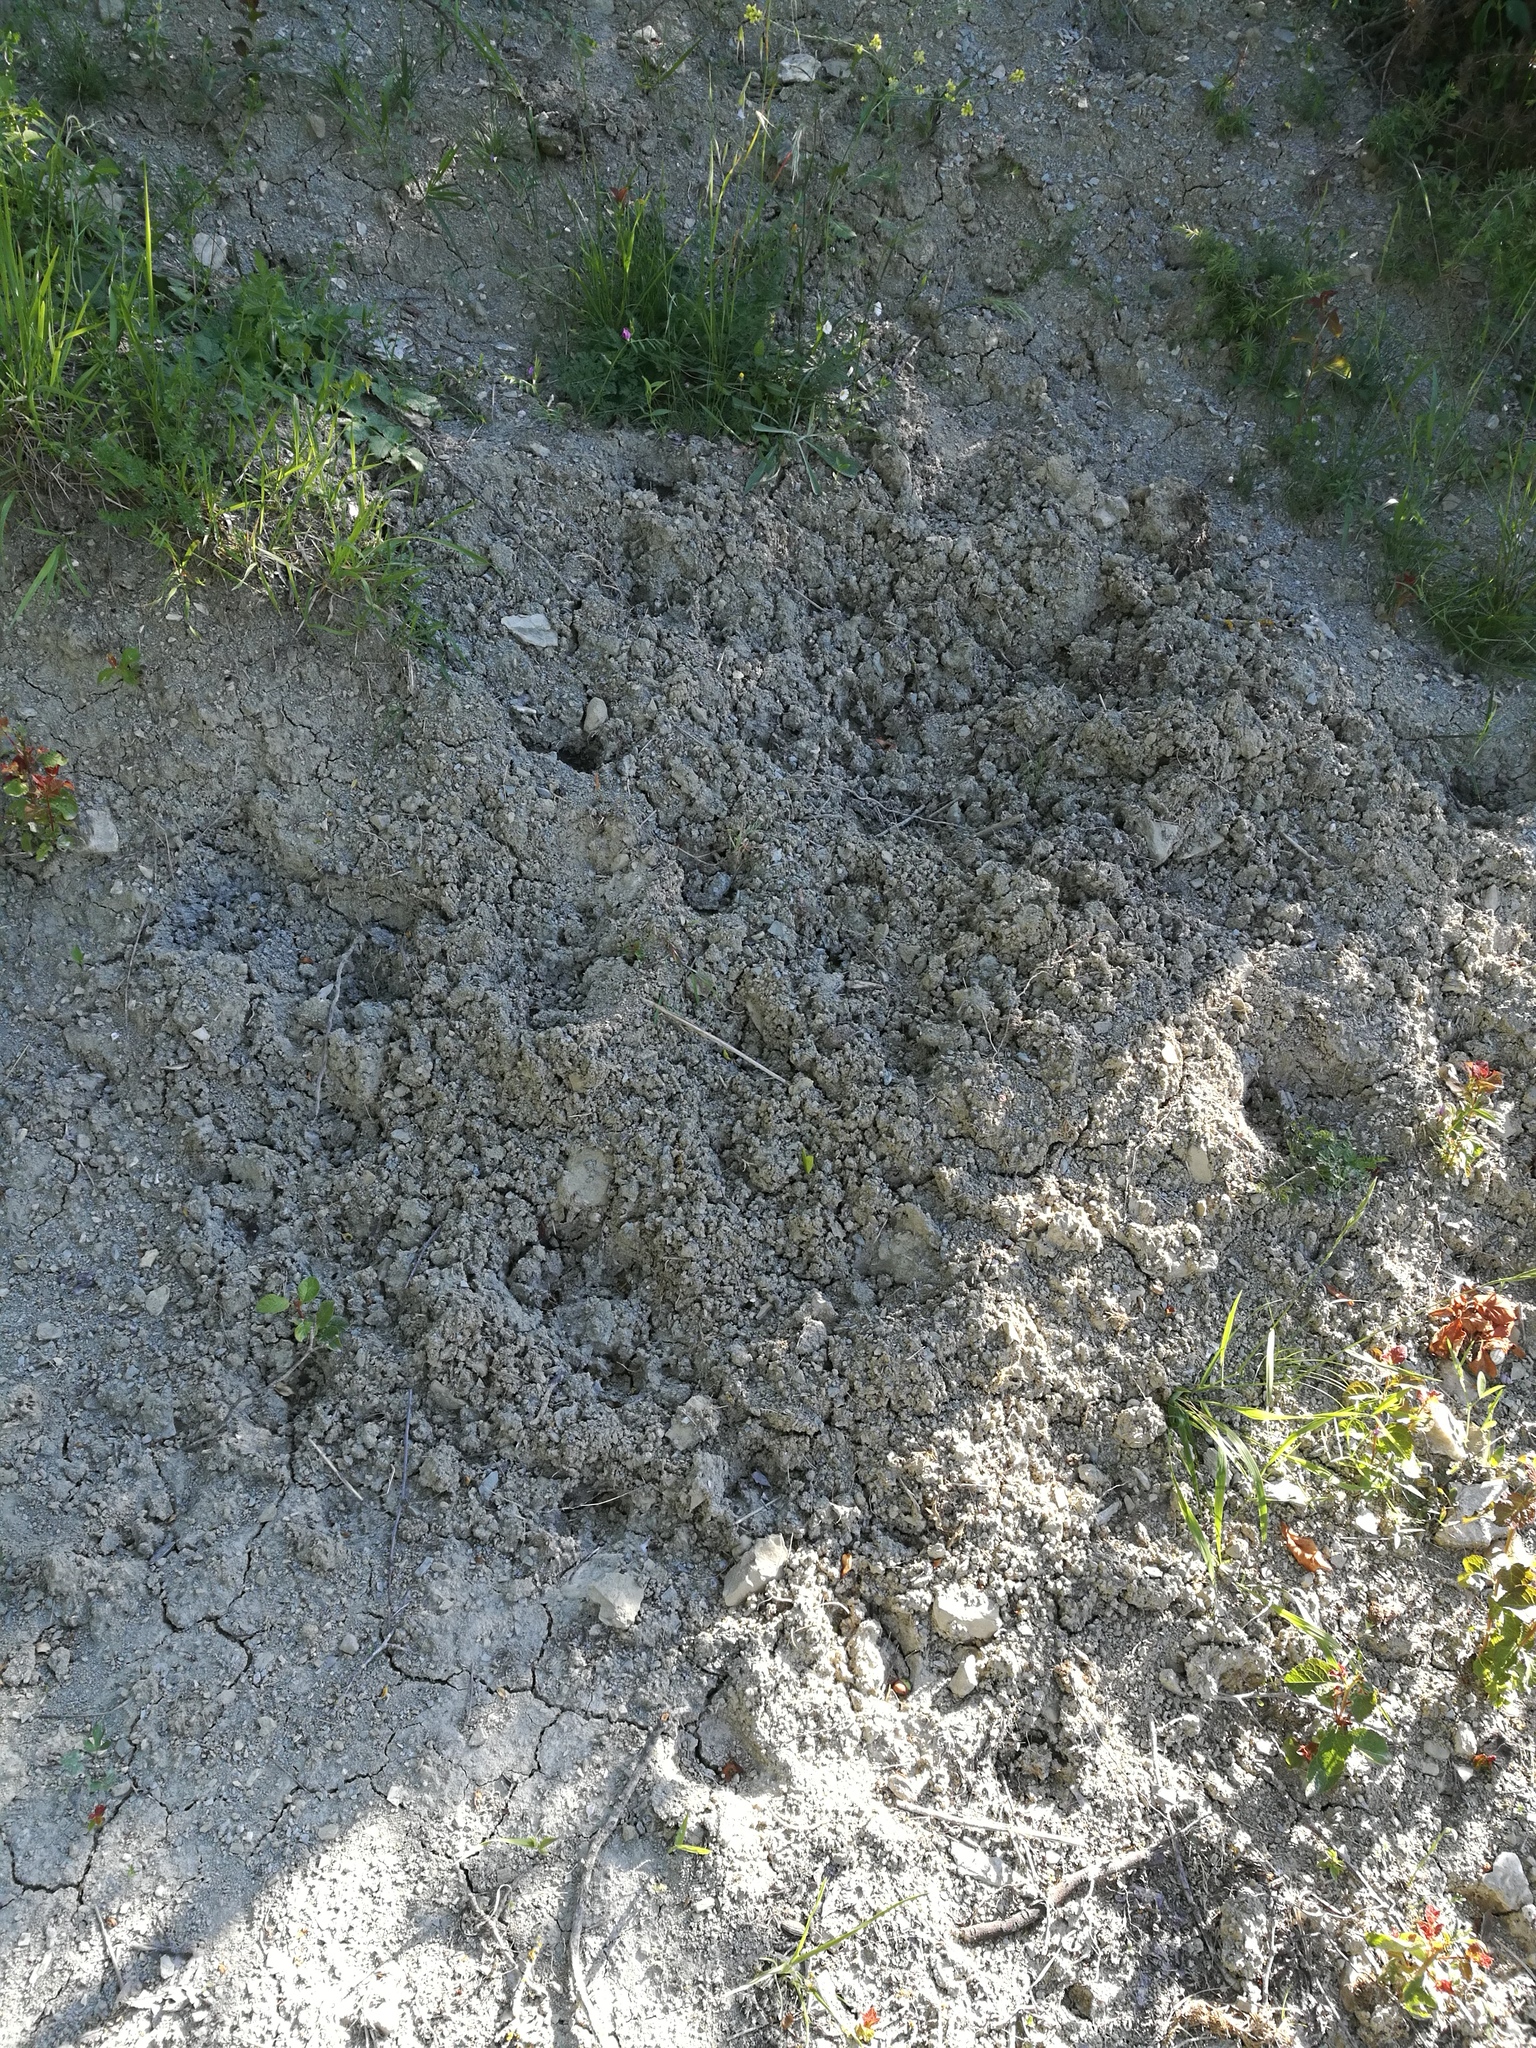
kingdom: Animalia
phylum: Chordata
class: Mammalia
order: Artiodactyla
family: Suidae
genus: Sus
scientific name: Sus scrofa
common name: Wild boar
